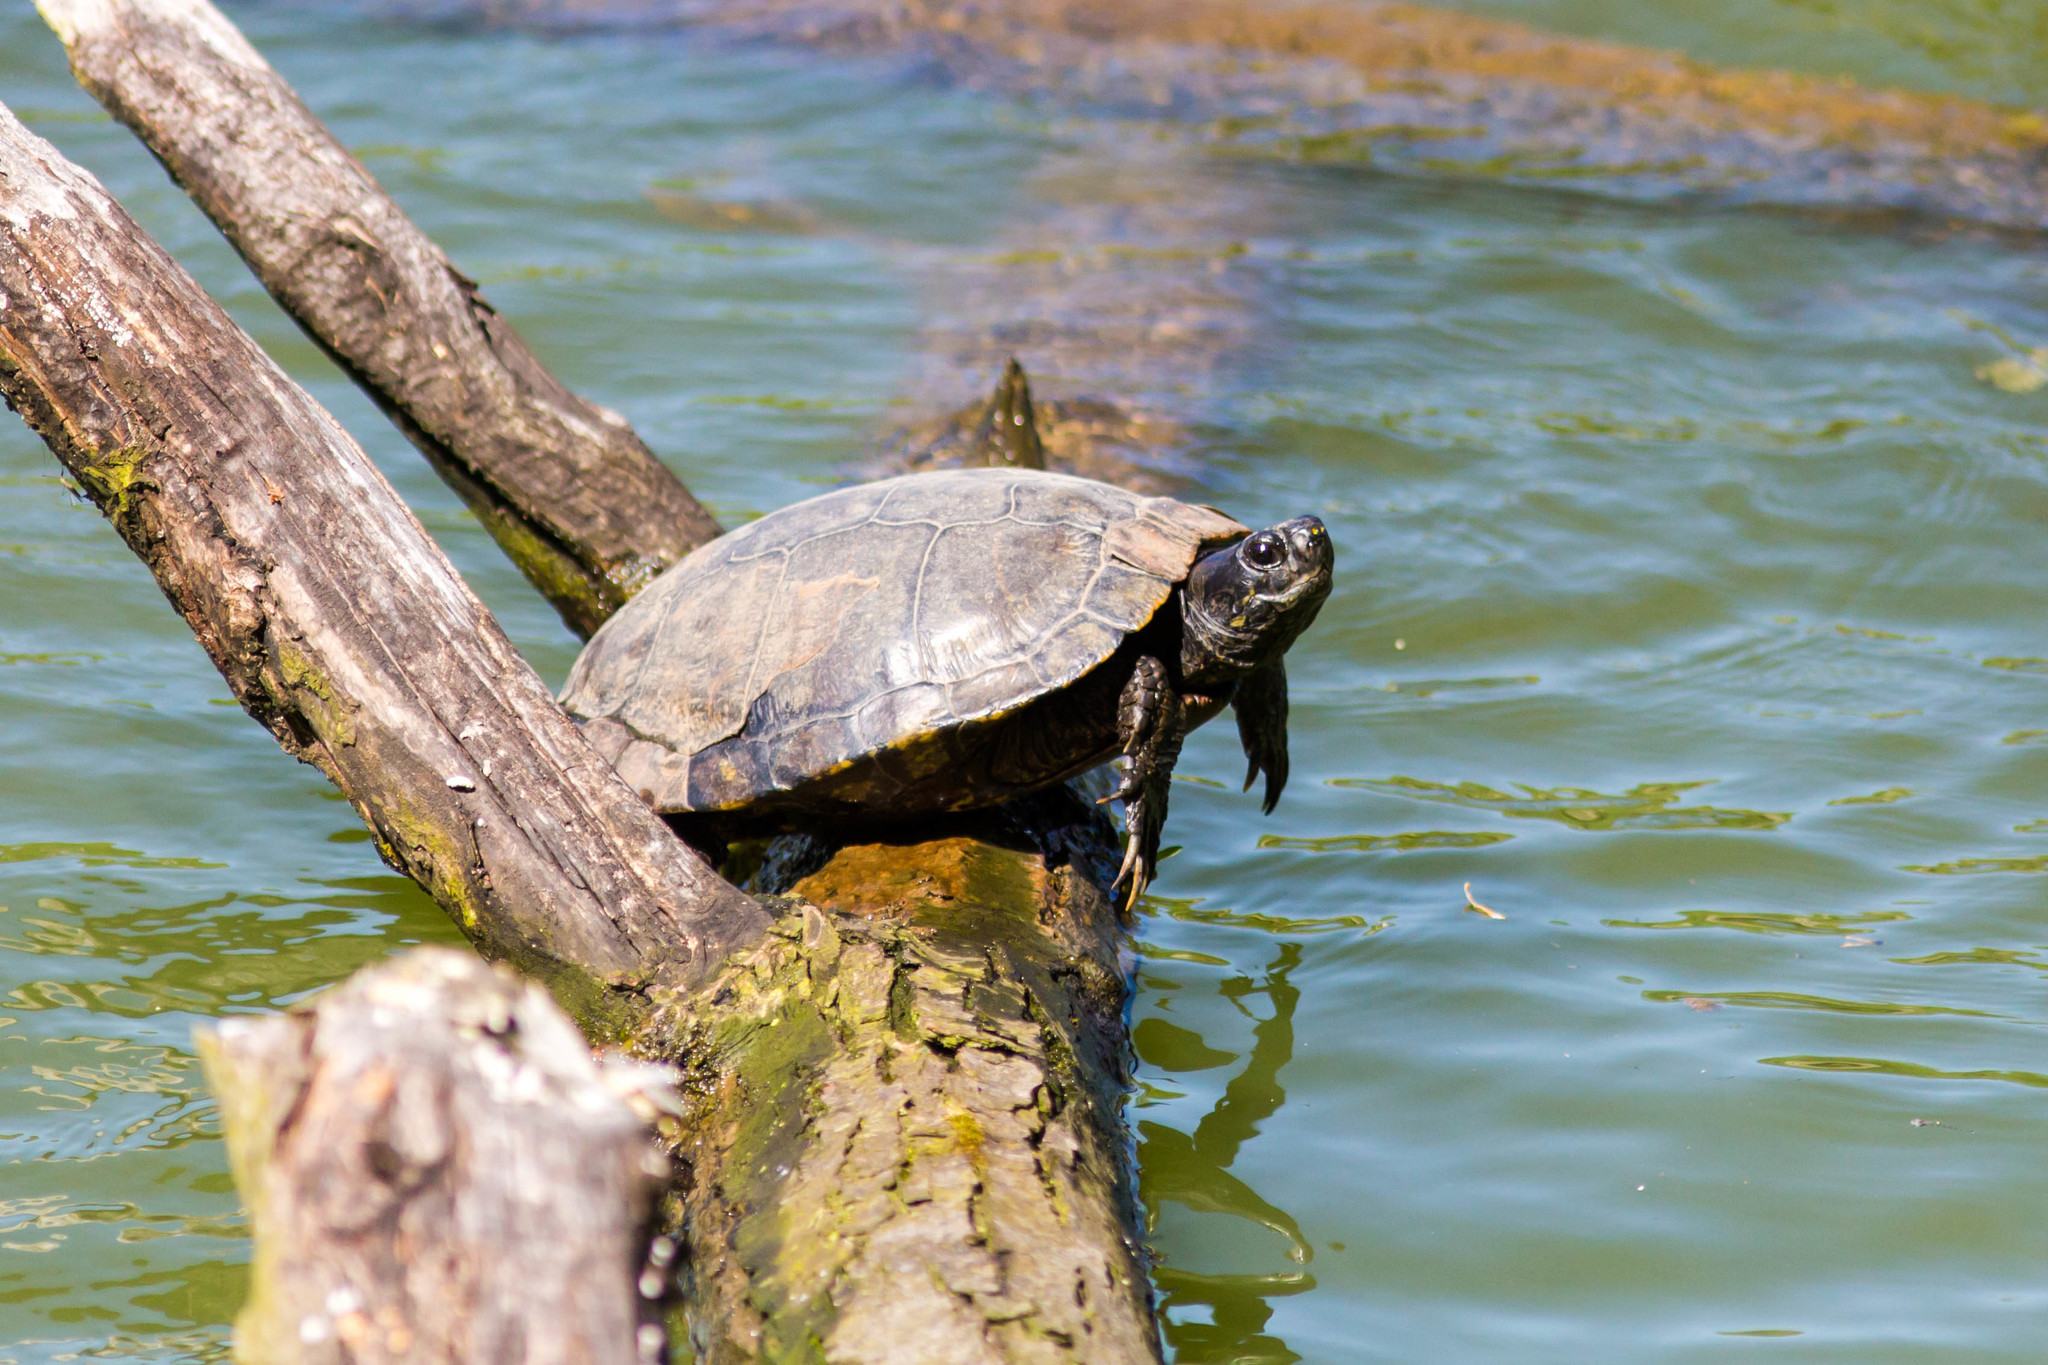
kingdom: Animalia
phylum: Chordata
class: Testudines
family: Emydidae
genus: Trachemys
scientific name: Trachemys scripta
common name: Slider
